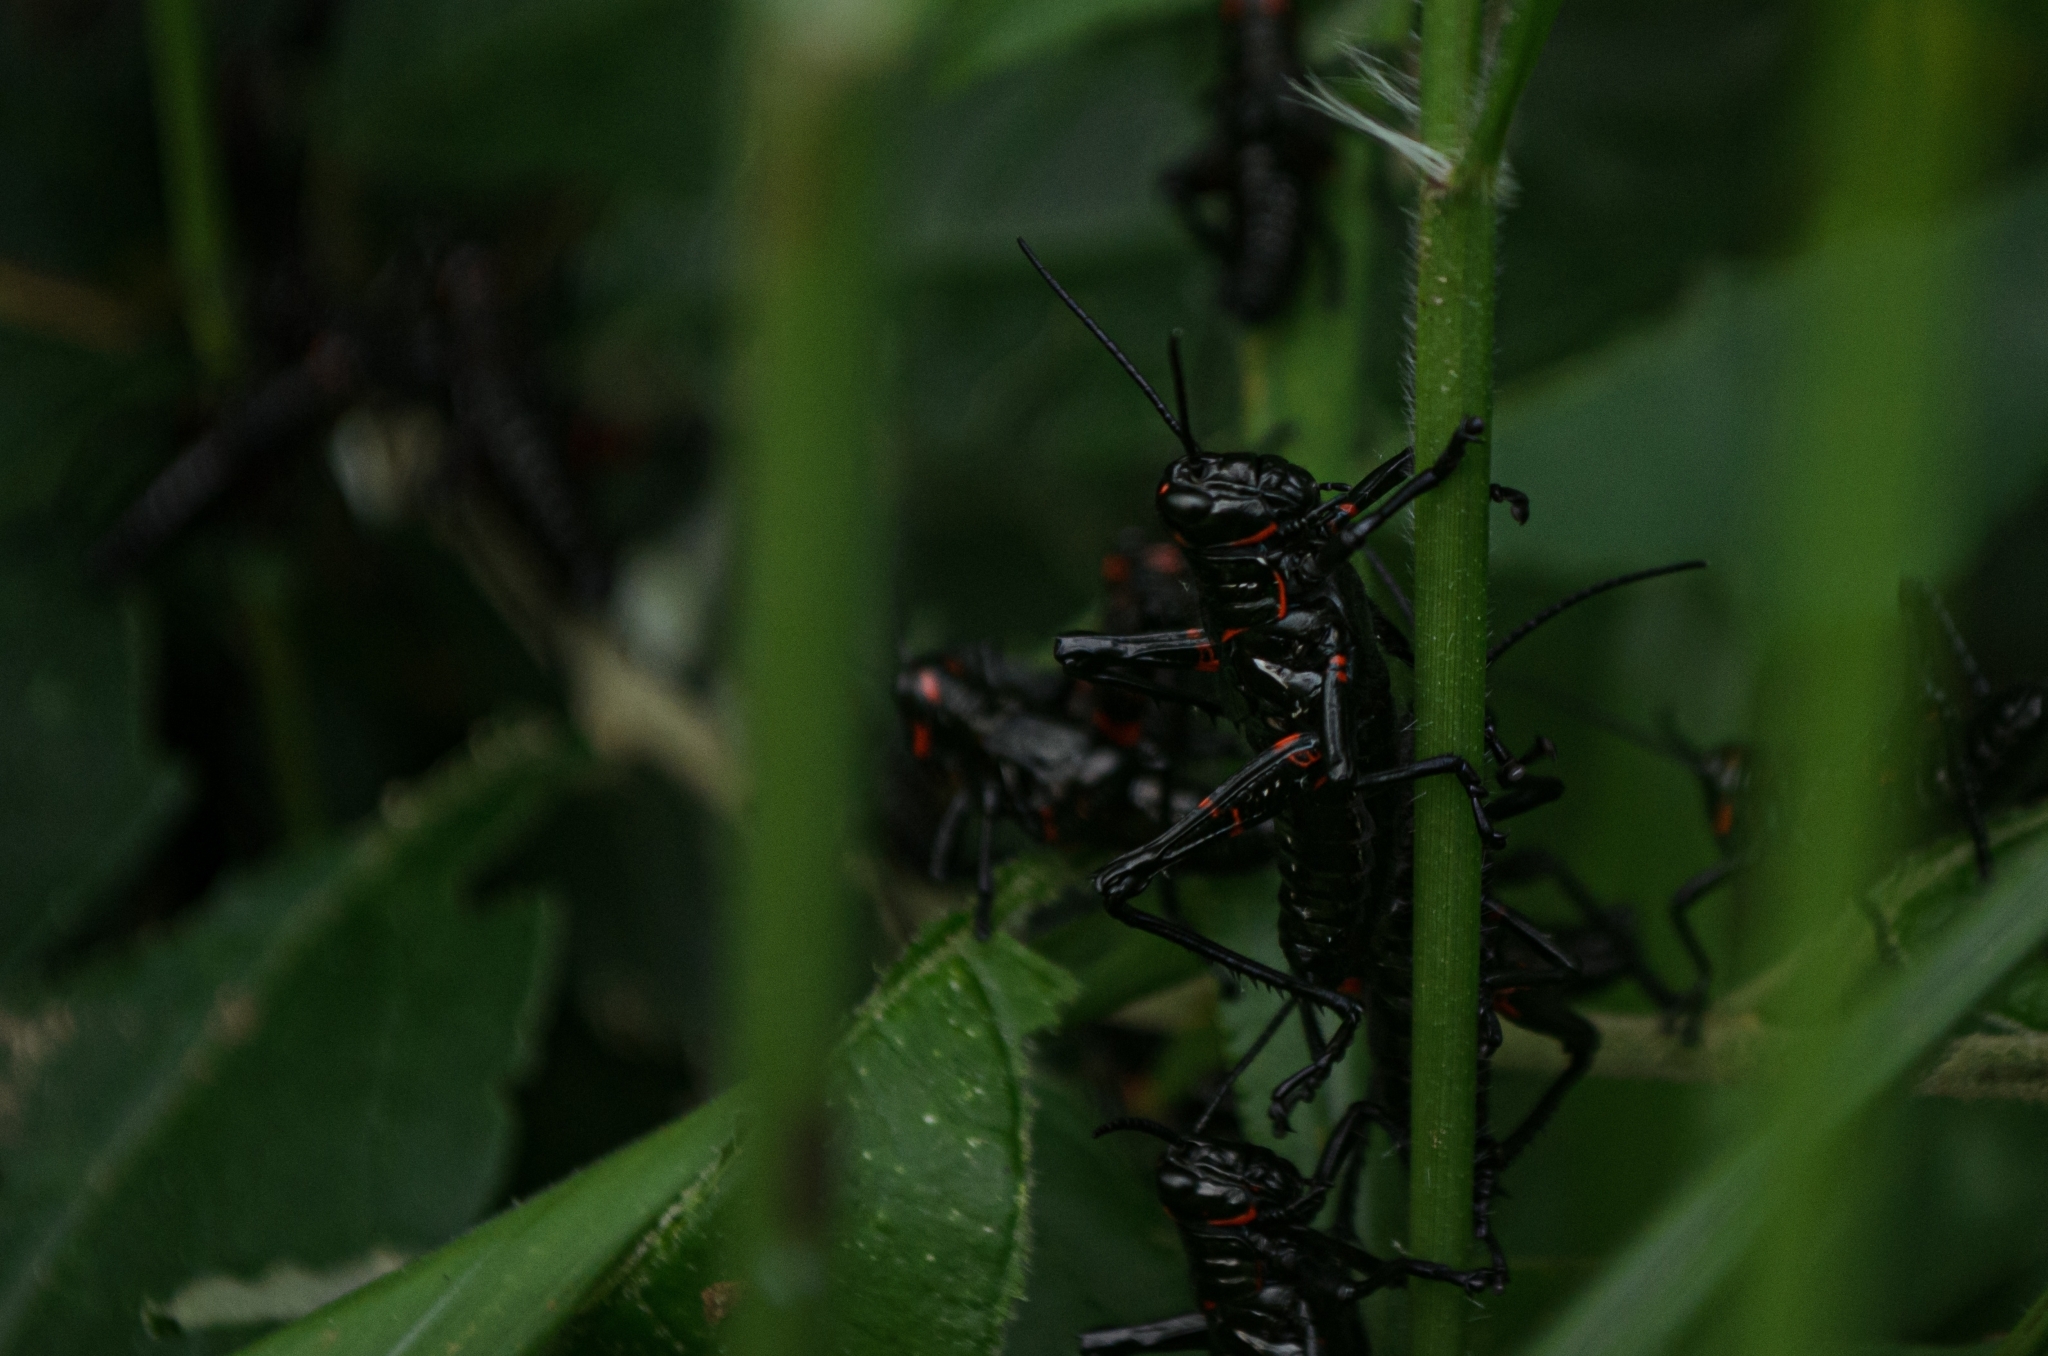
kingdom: Animalia
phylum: Arthropoda
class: Insecta
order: Orthoptera
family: Romaleidae
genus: Chromacris
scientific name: Chromacris speciosa
